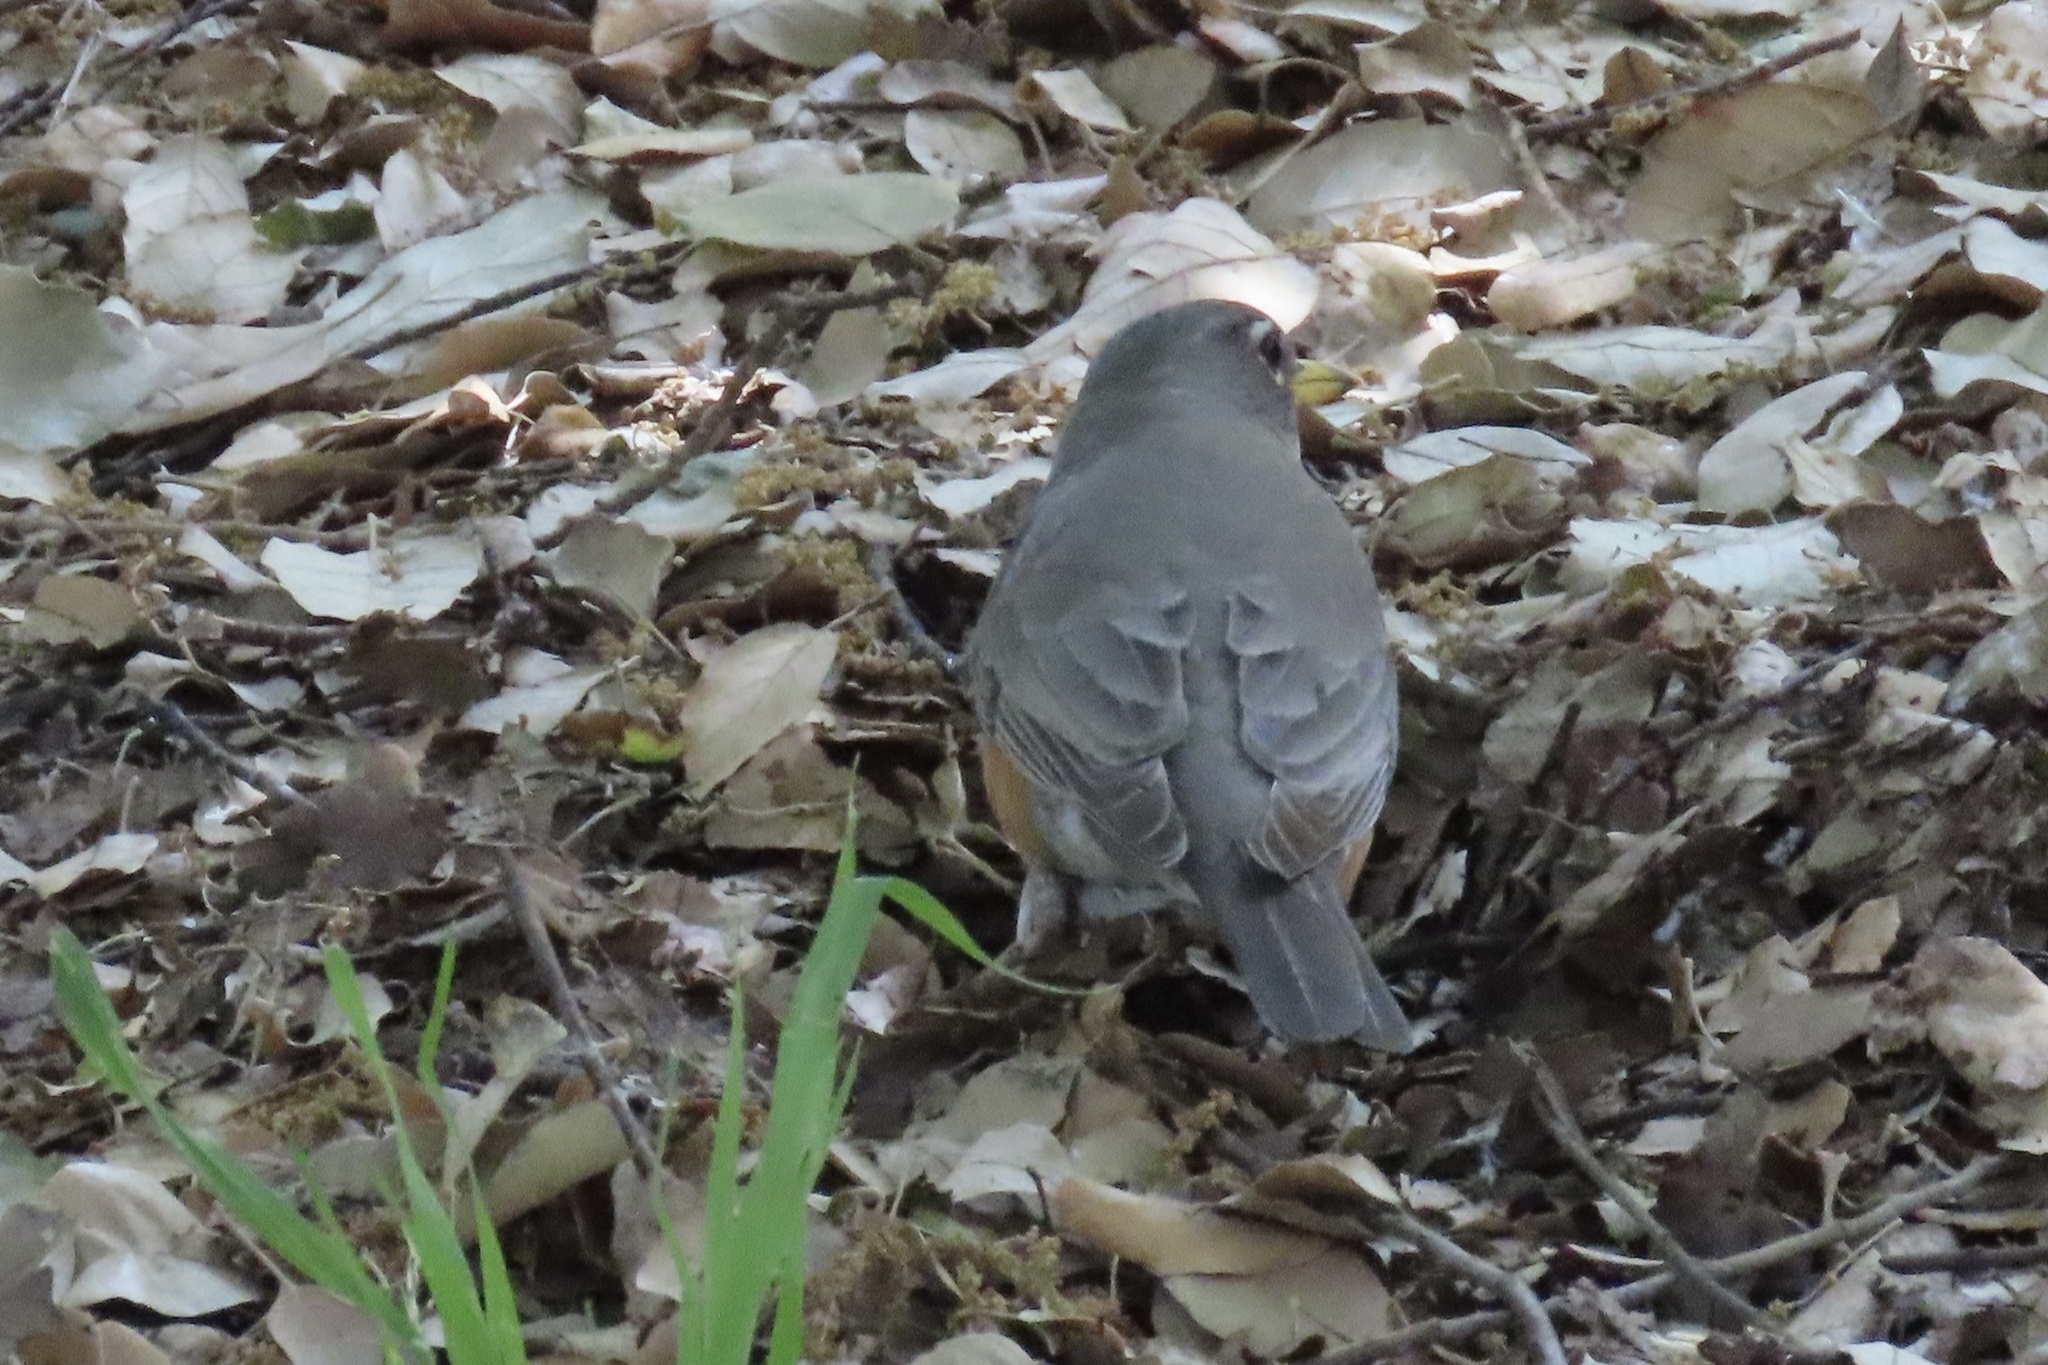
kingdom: Animalia
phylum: Chordata
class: Aves
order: Passeriformes
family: Turdidae
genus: Turdus
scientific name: Turdus migratorius
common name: American robin
